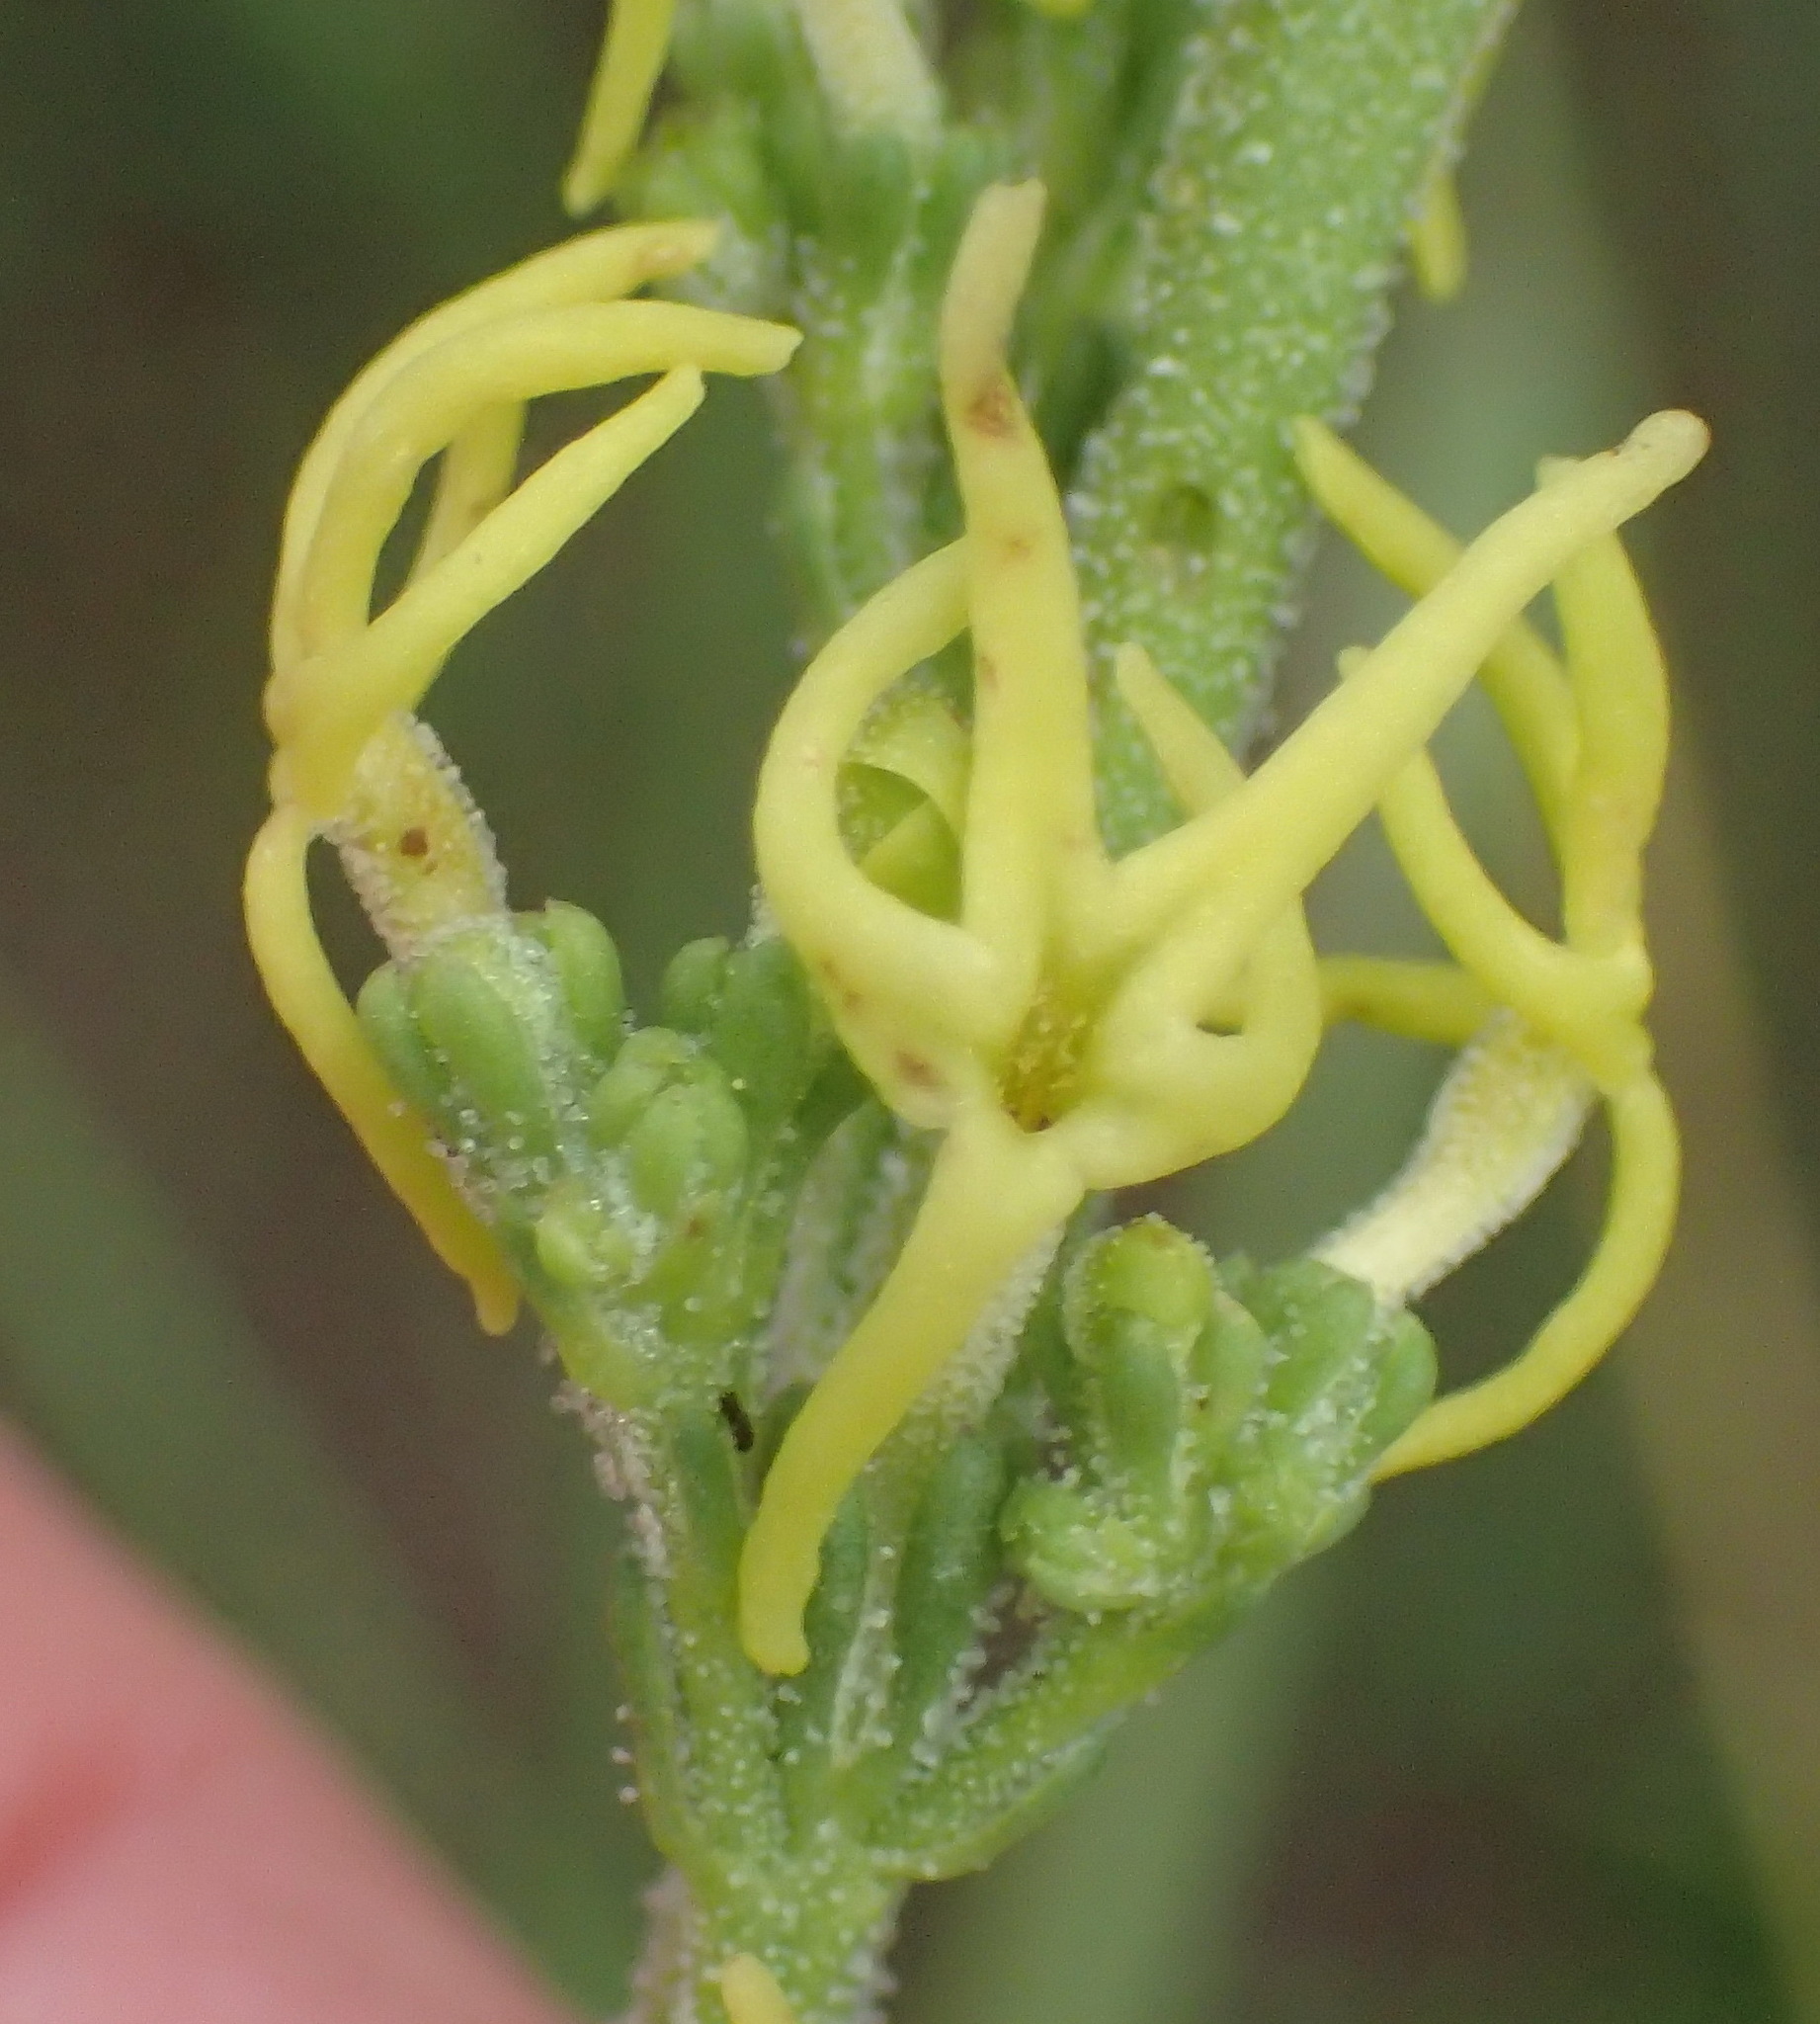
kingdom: Plantae
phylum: Tracheophyta
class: Magnoliopsida
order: Lamiales
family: Scrophulariaceae
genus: Manulea
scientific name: Manulea obovata
